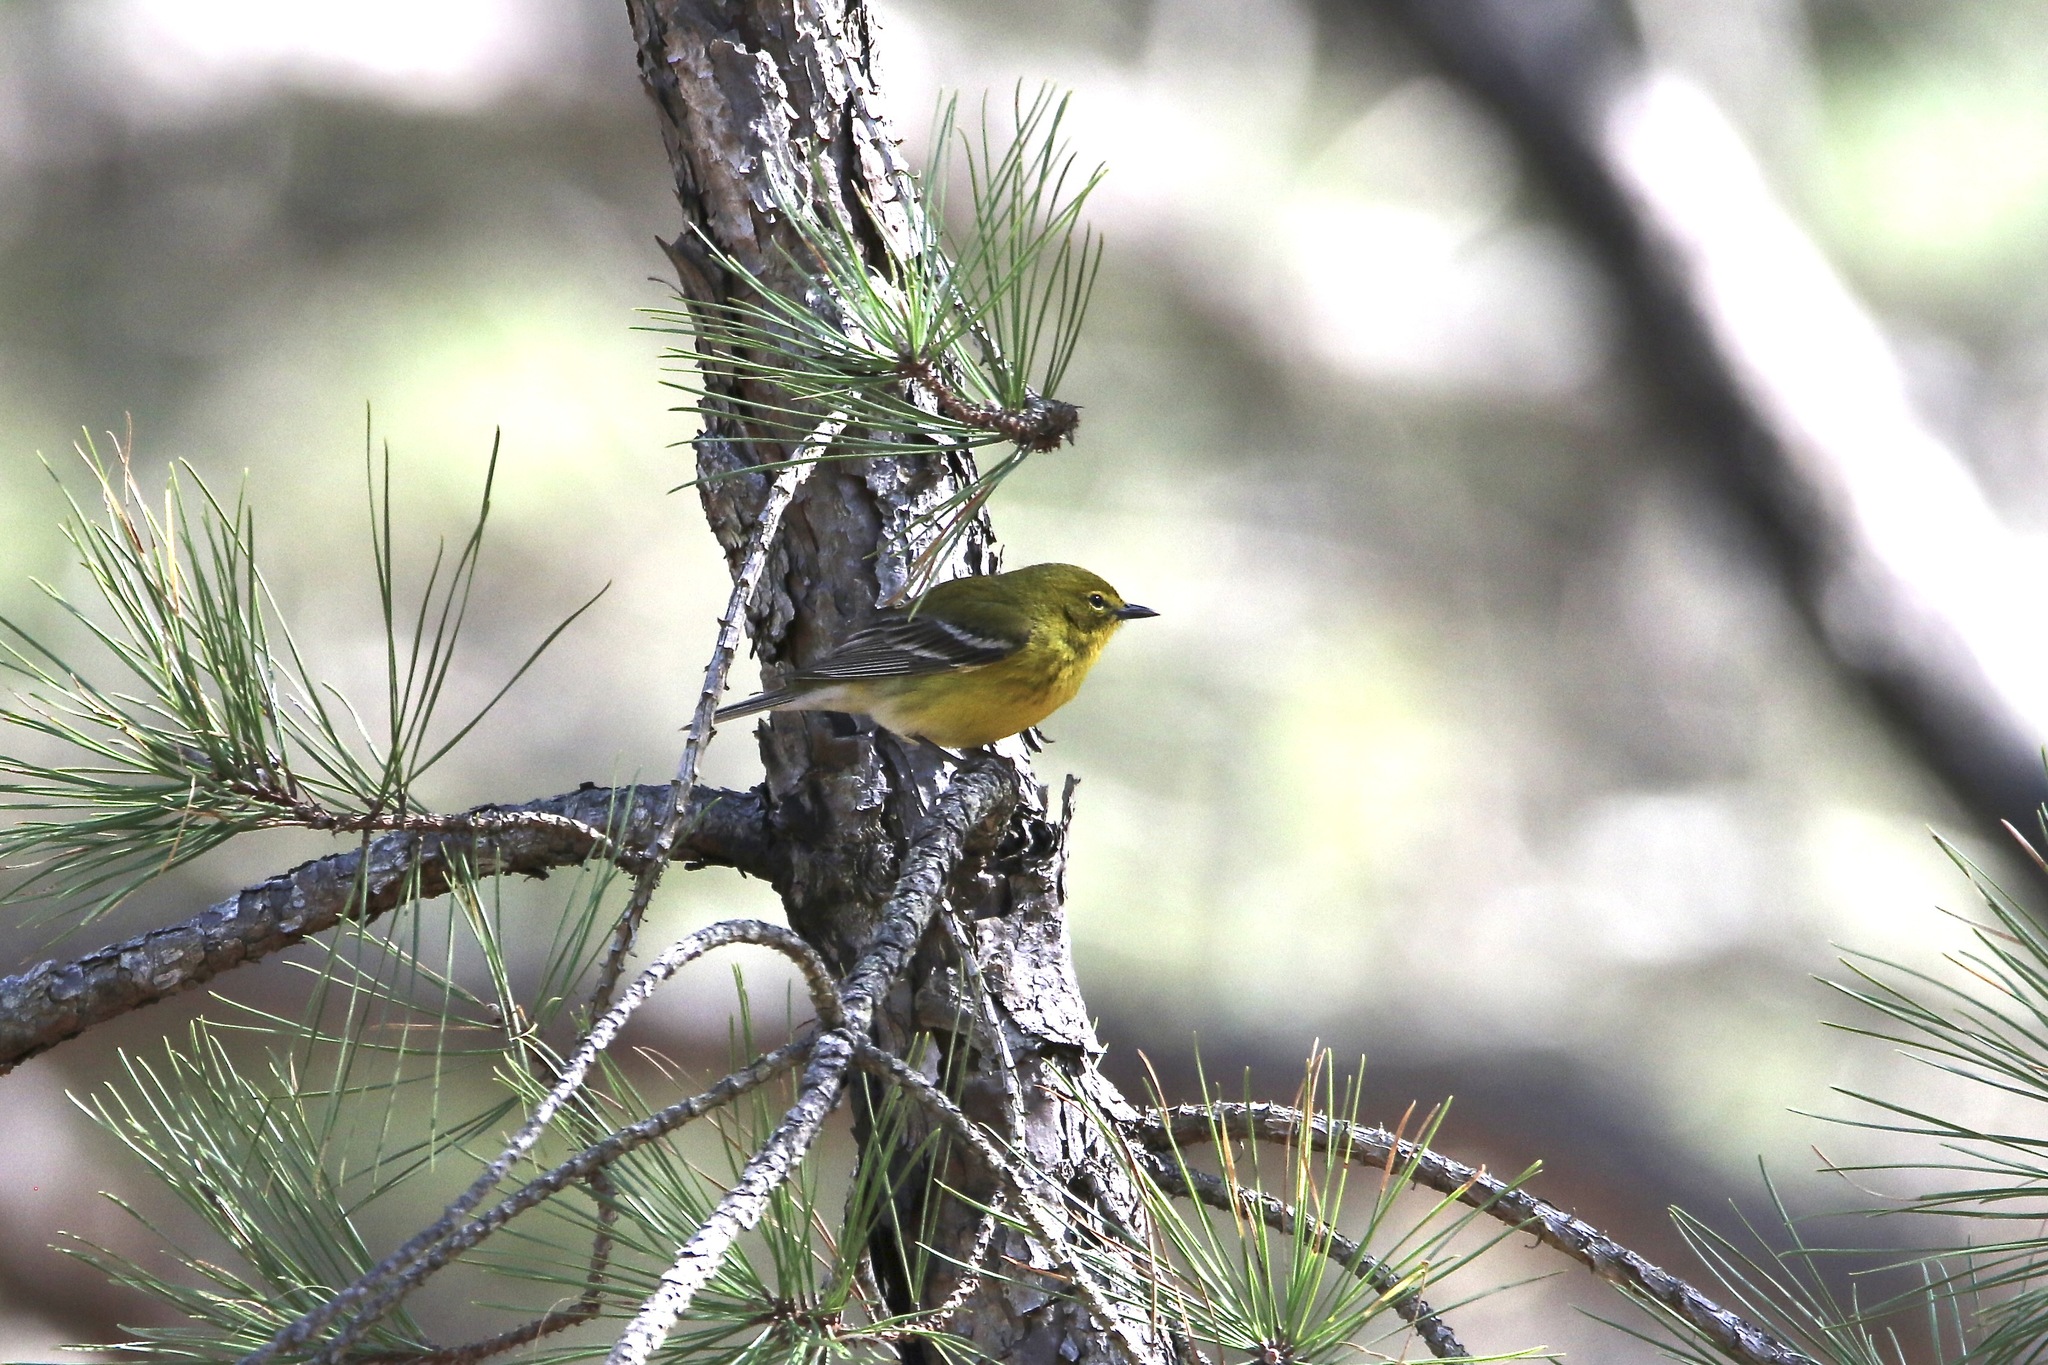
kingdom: Animalia
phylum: Chordata
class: Aves
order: Passeriformes
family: Parulidae
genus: Setophaga
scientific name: Setophaga pinus
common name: Pine warbler
